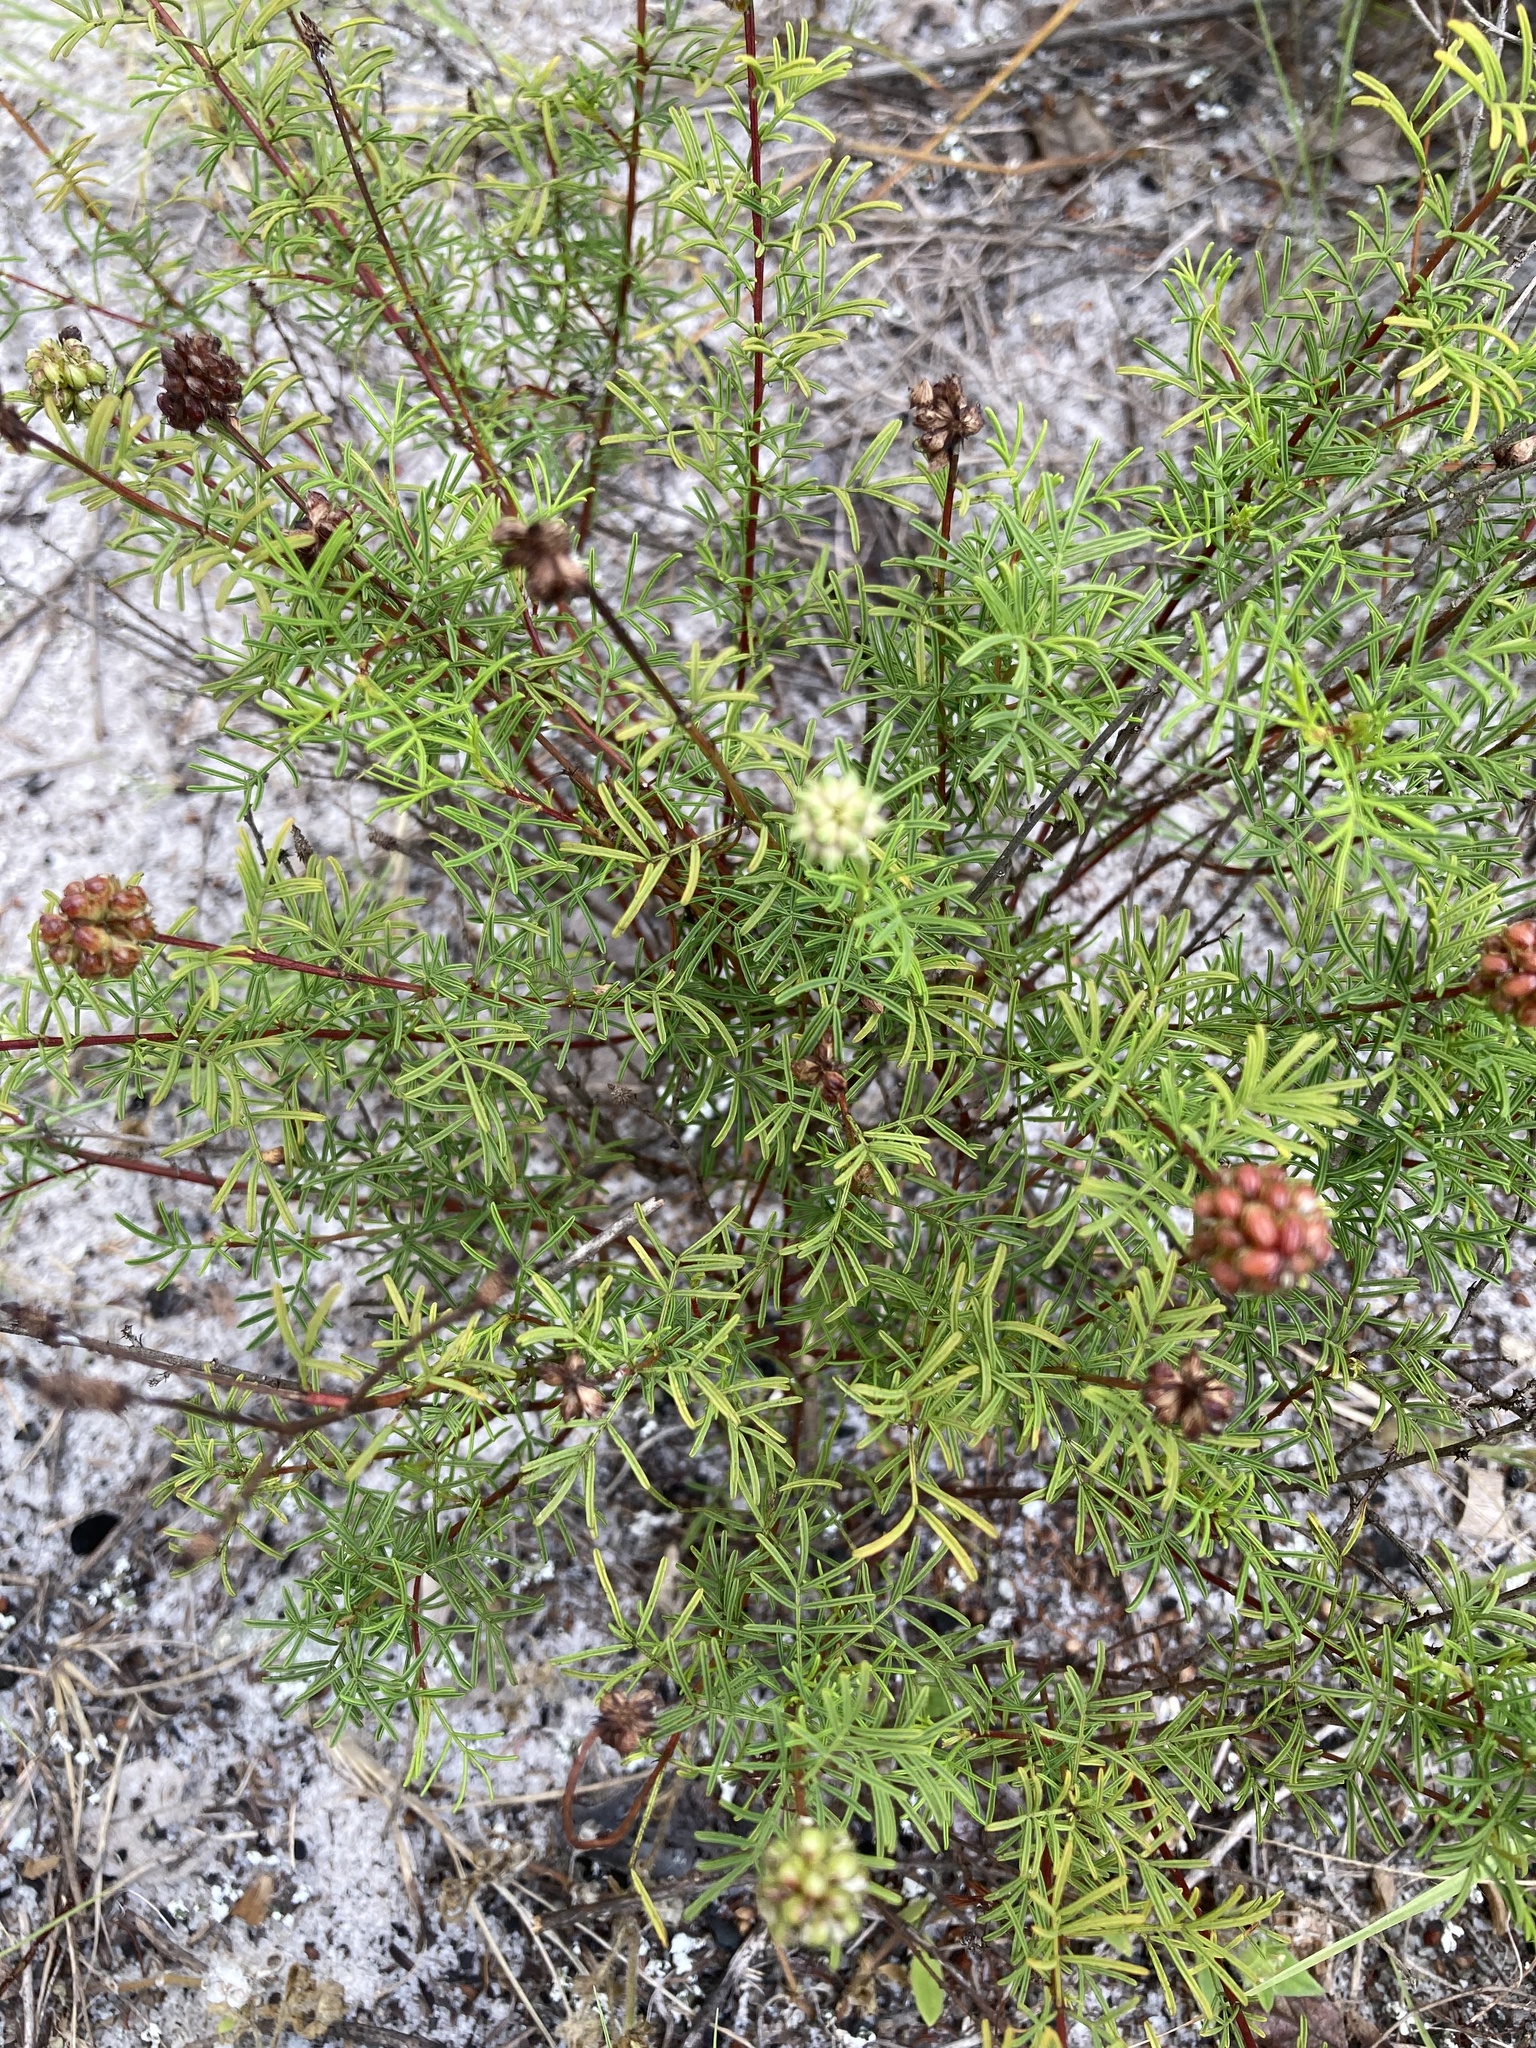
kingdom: Plantae
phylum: Tracheophyta
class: Magnoliopsida
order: Fabales
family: Fabaceae
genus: Dalea
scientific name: Dalea feayi
